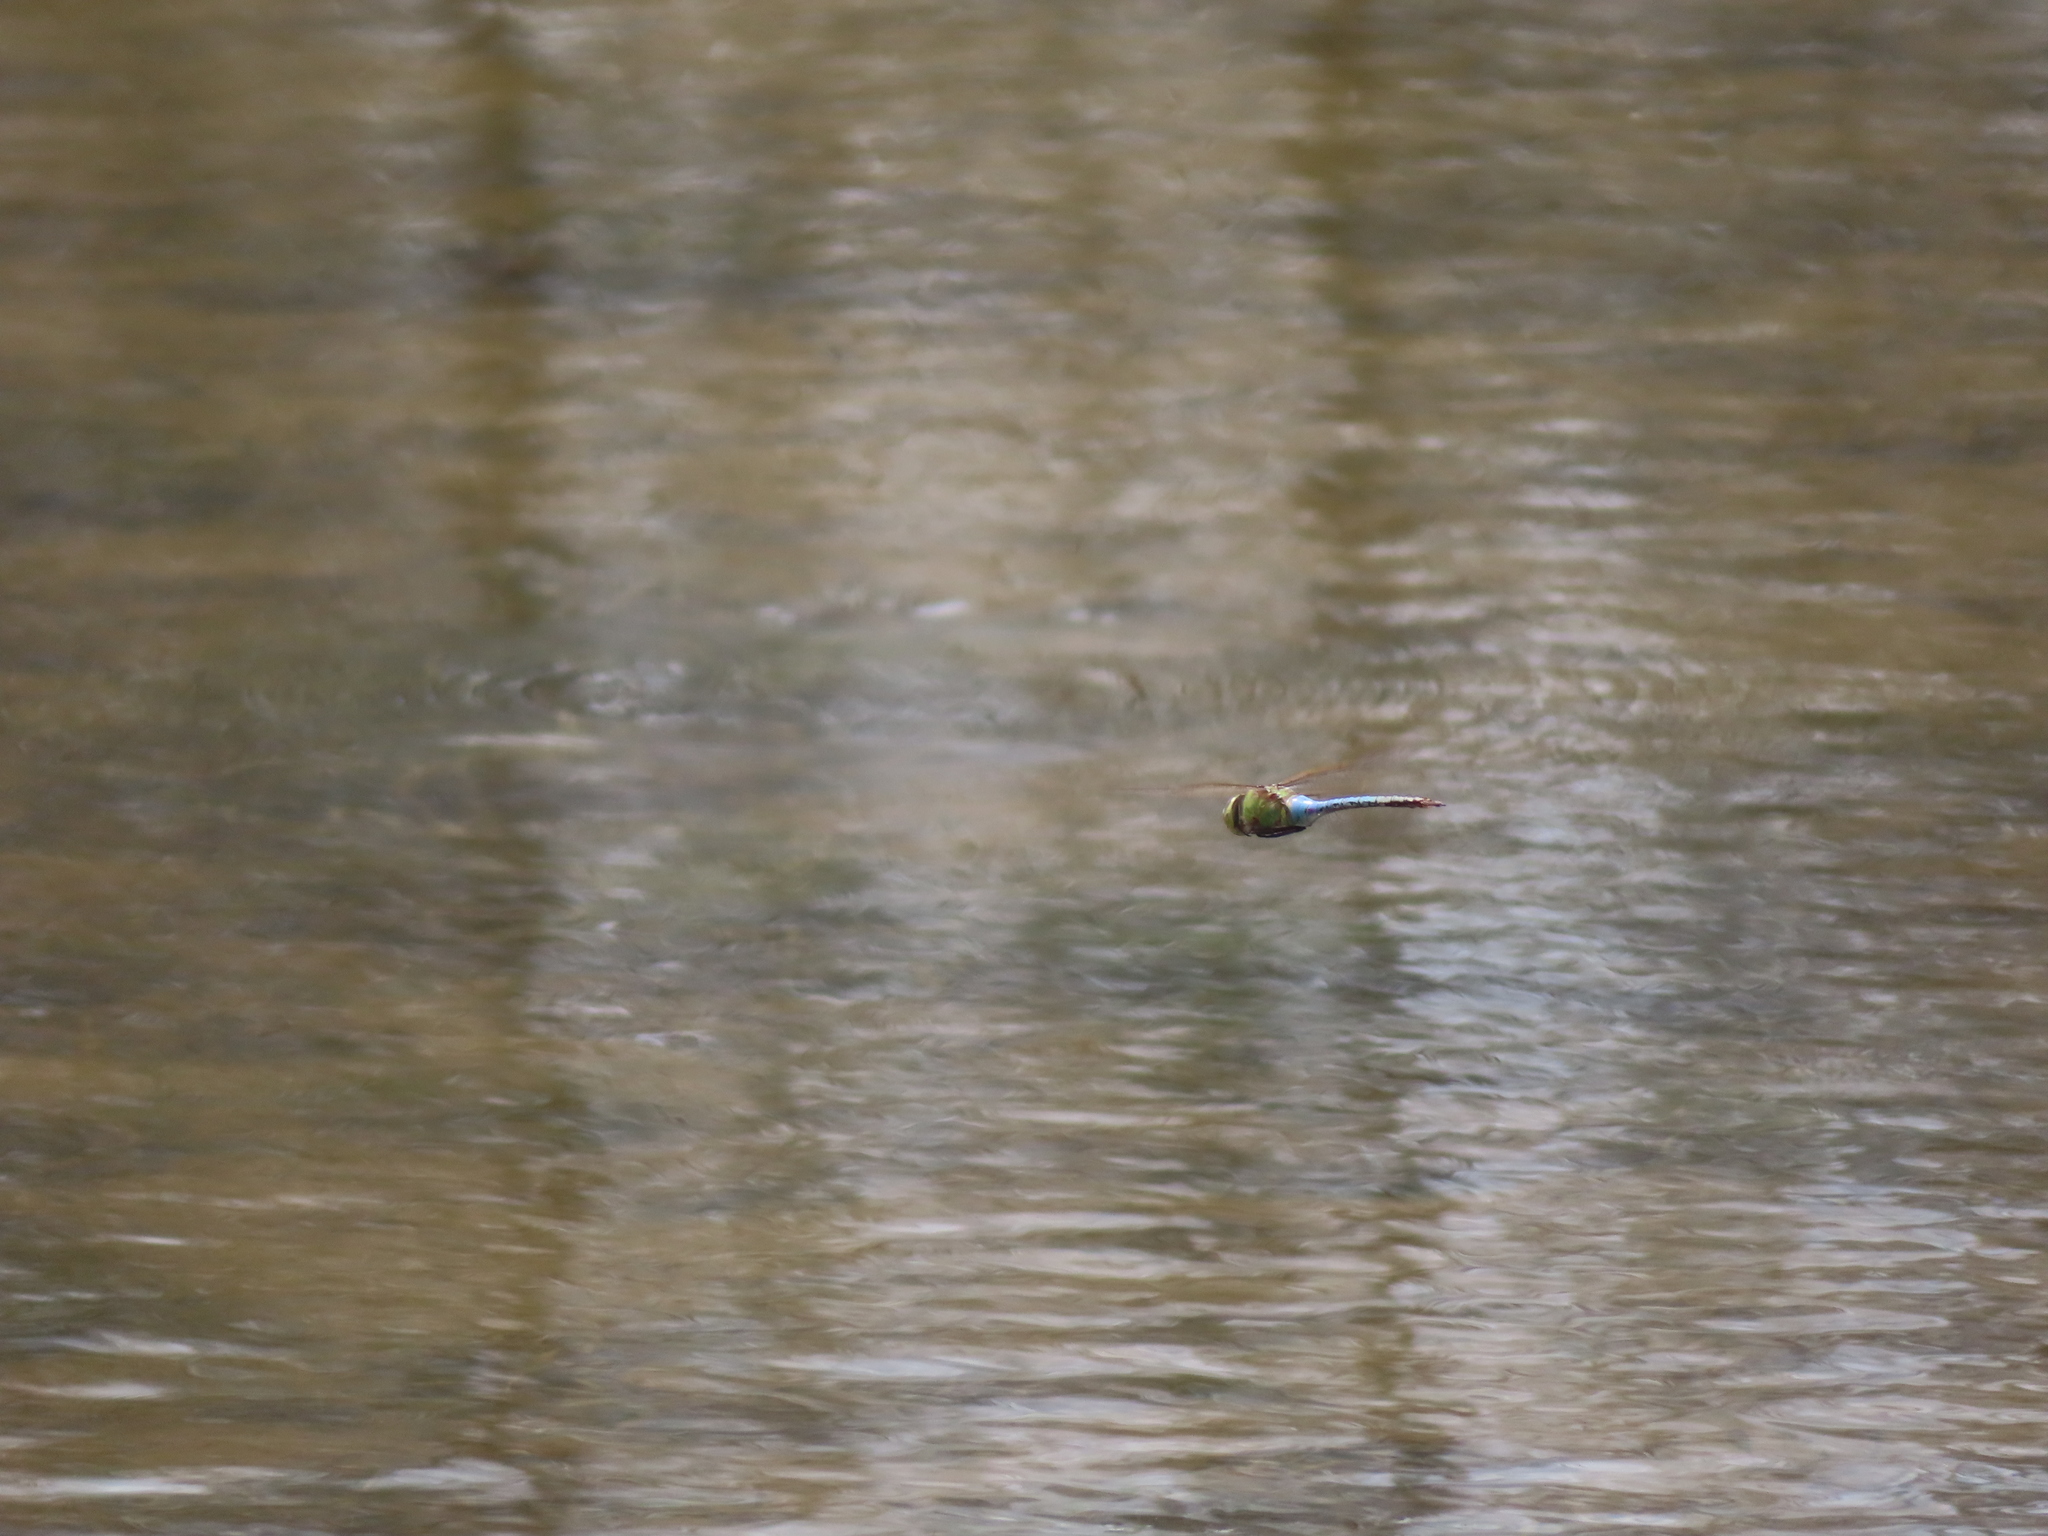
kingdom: Animalia
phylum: Arthropoda
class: Insecta
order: Odonata
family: Aeshnidae
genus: Anax
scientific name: Anax junius
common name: Common green darner
